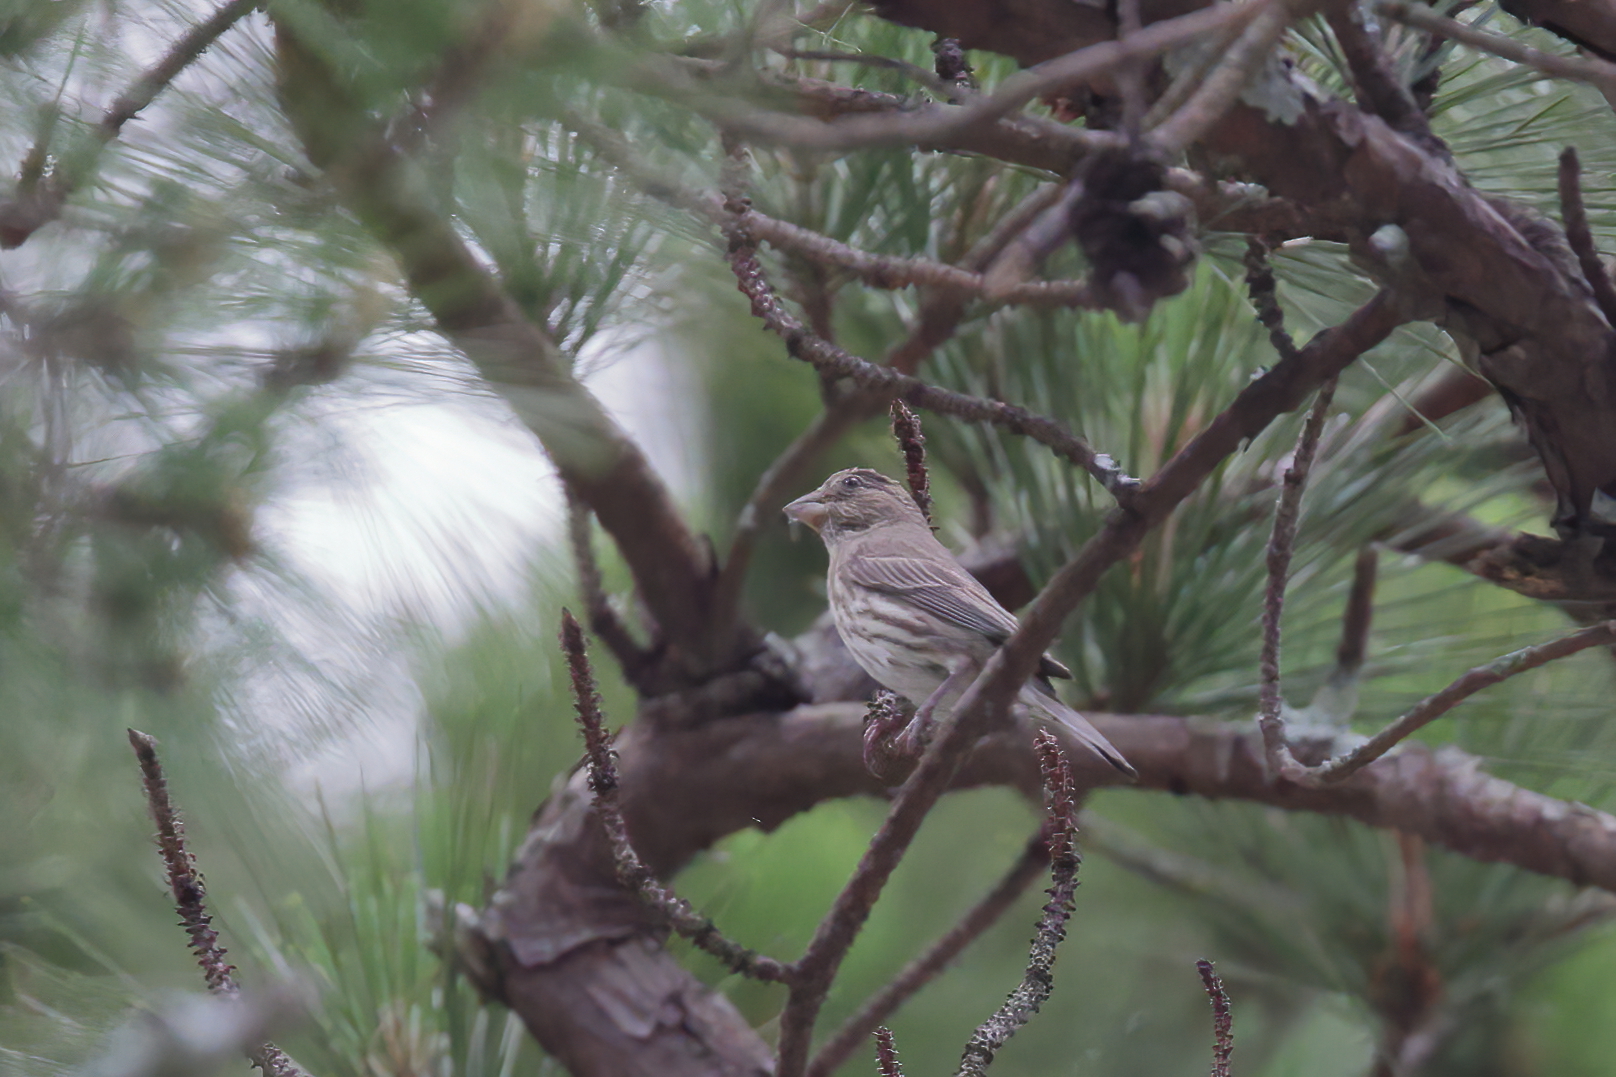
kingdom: Animalia
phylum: Chordata
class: Aves
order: Passeriformes
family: Fringillidae
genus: Haemorhous
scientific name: Haemorhous mexicanus
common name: House finch
